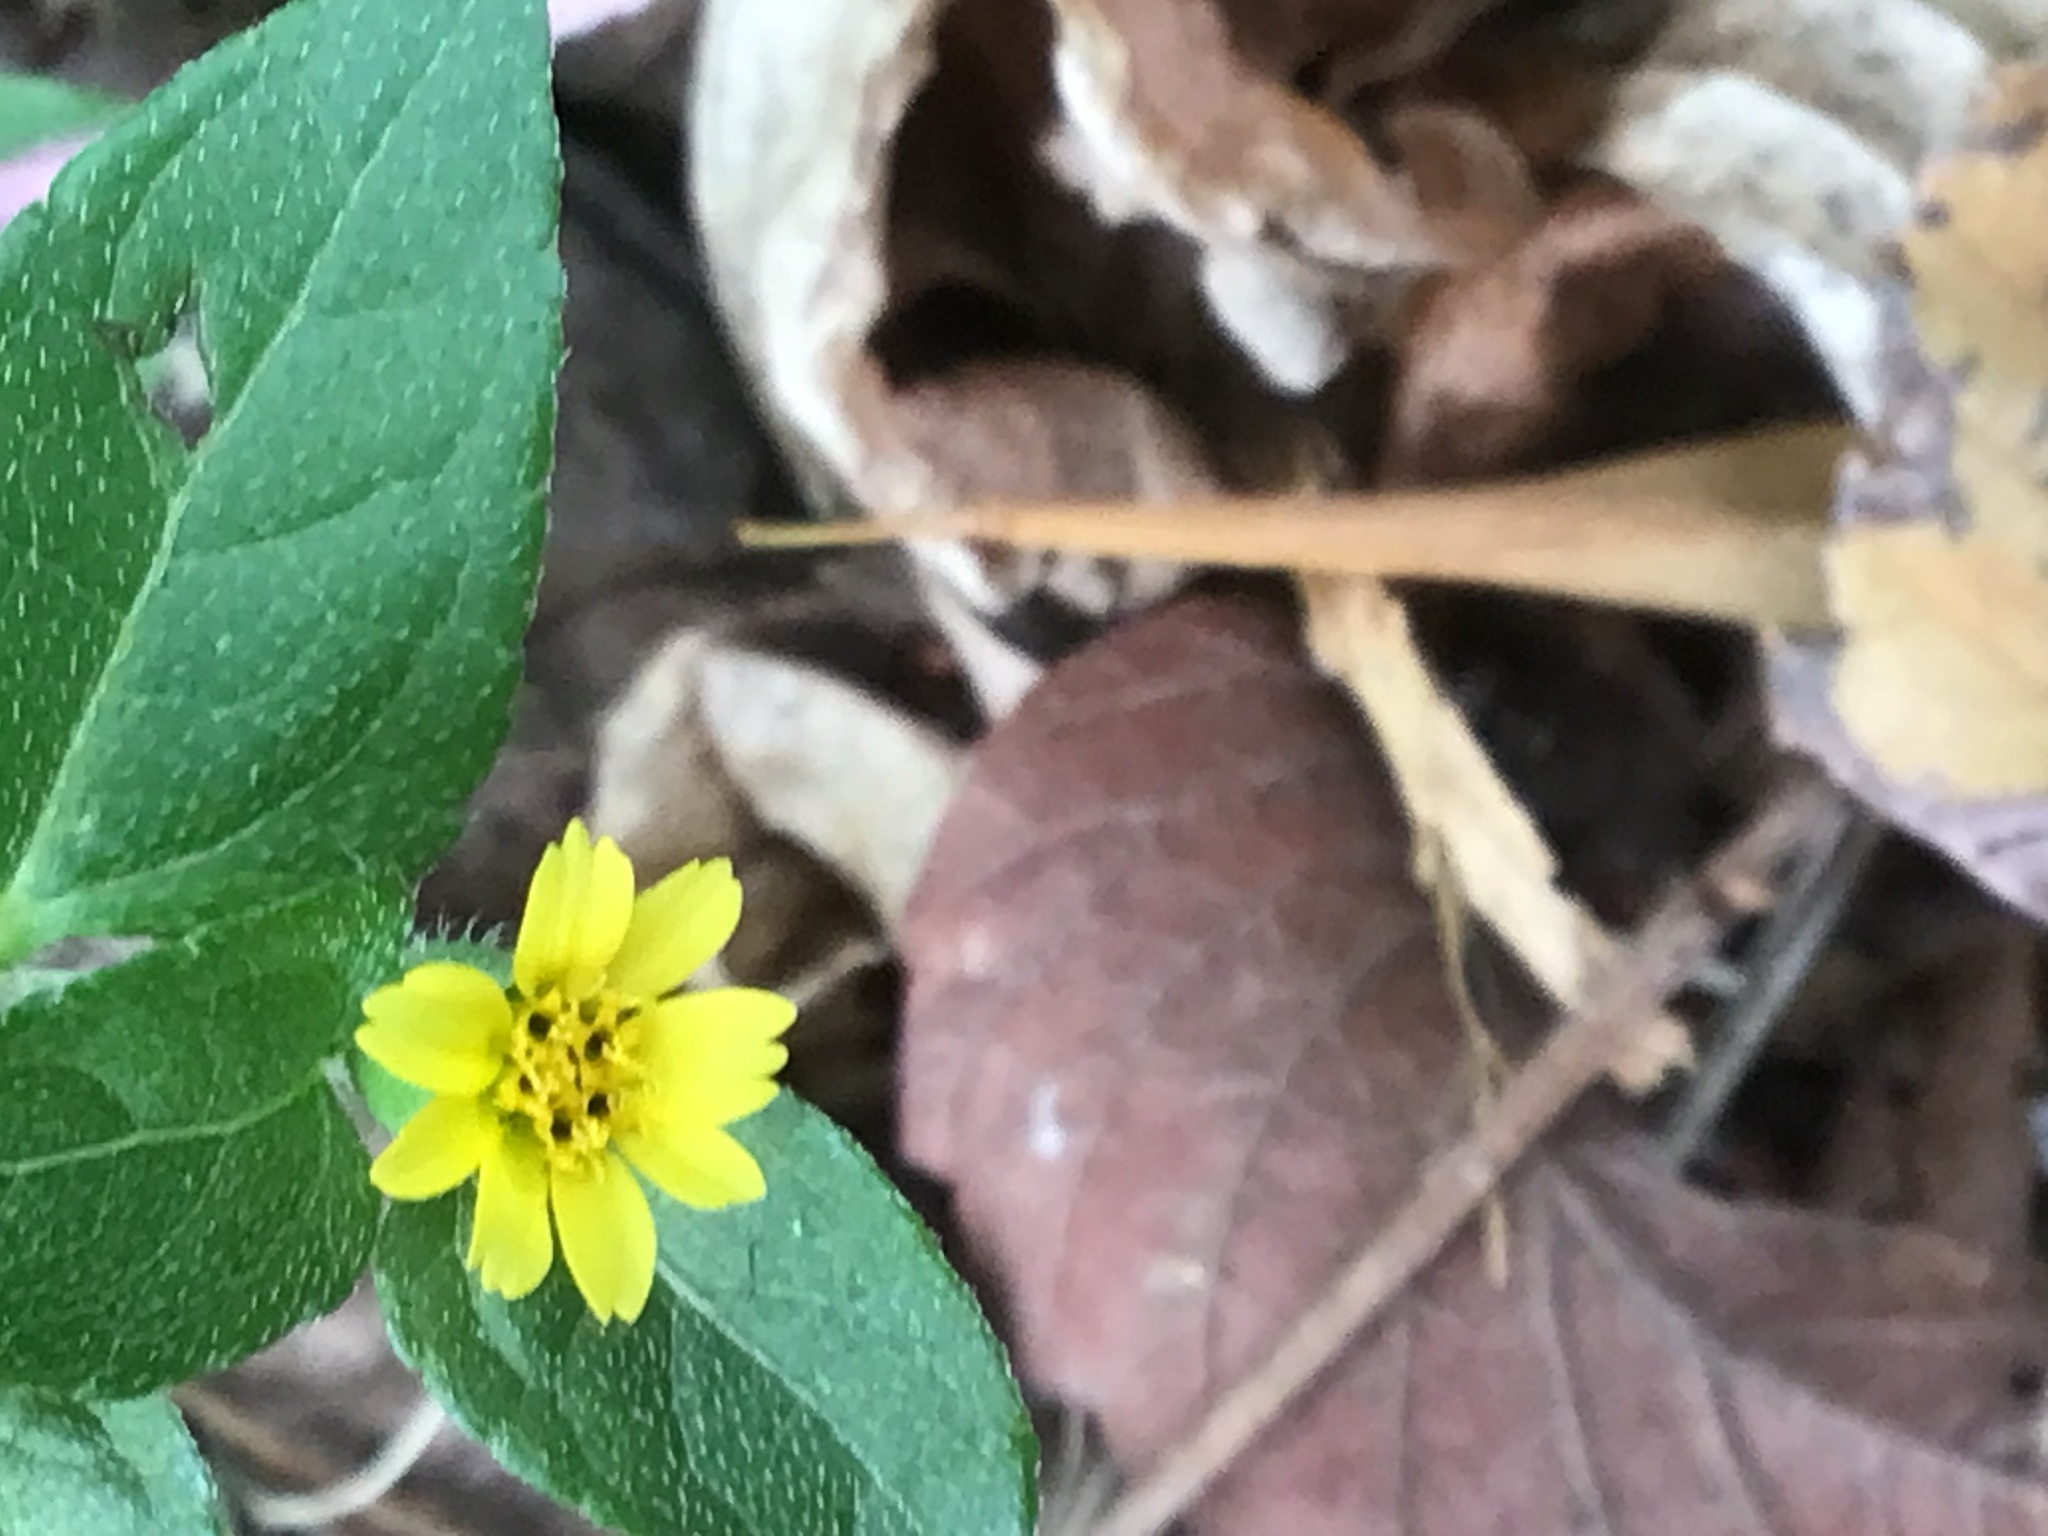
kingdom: Plantae
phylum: Tracheophyta
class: Magnoliopsida
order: Asterales
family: Asteraceae
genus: Calyptocarpus
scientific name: Calyptocarpus vialis
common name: Straggler daisy
